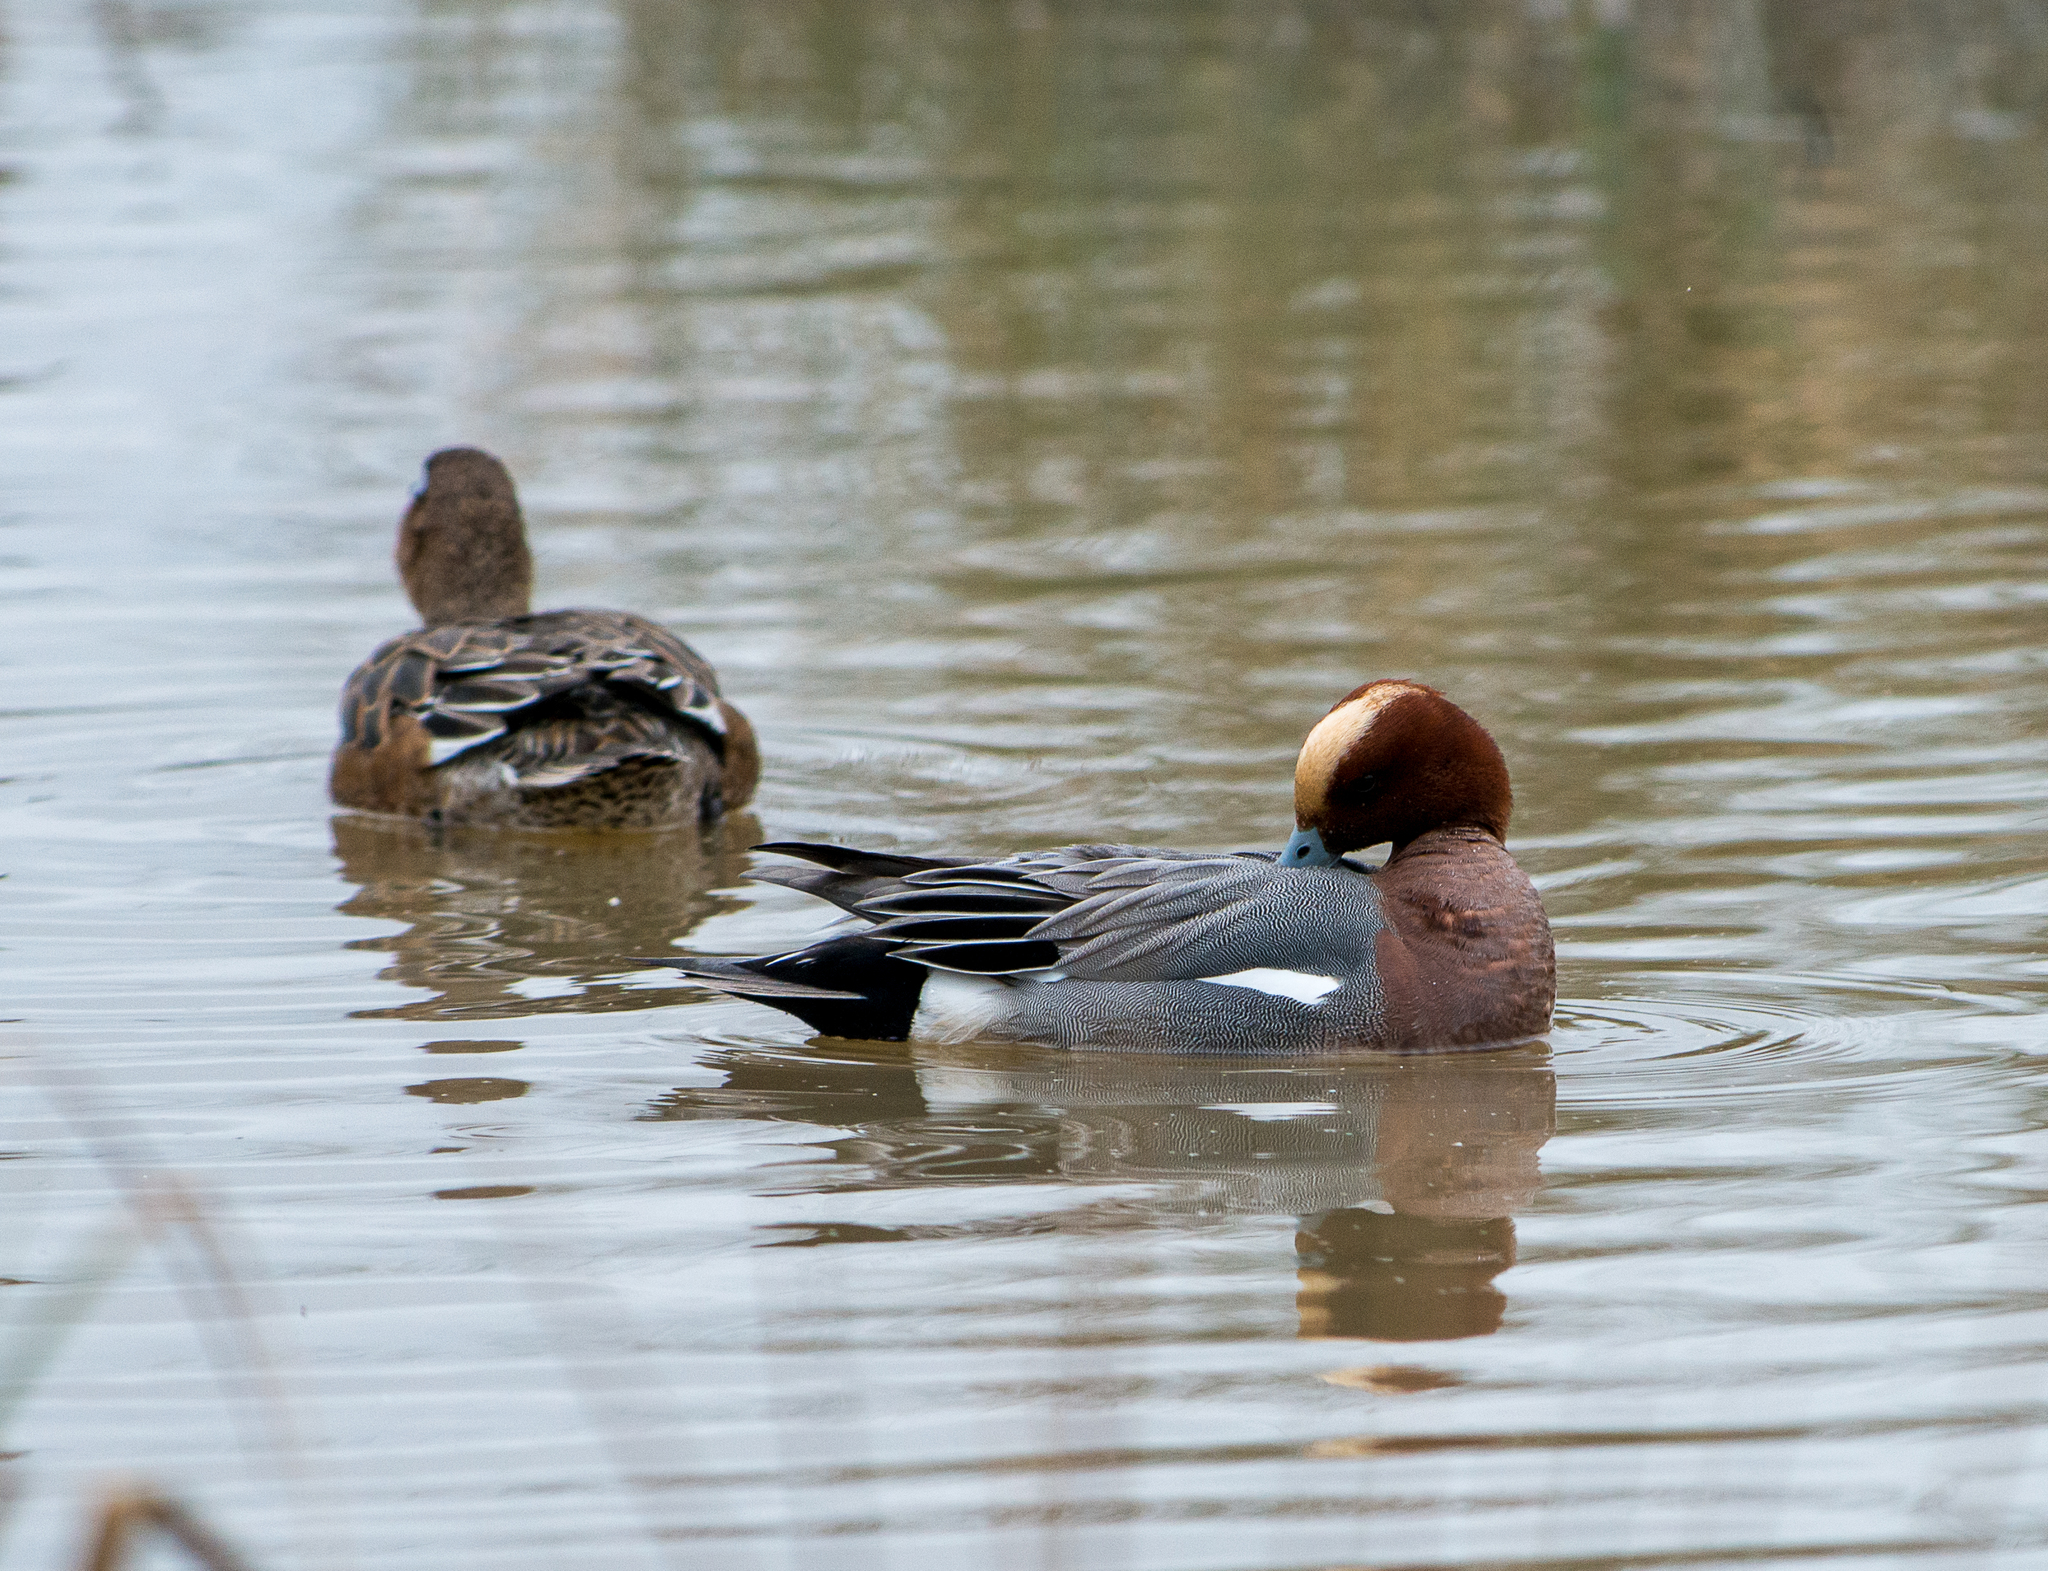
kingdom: Animalia
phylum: Chordata
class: Aves
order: Anseriformes
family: Anatidae
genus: Mareca
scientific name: Mareca penelope
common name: Eurasian wigeon
